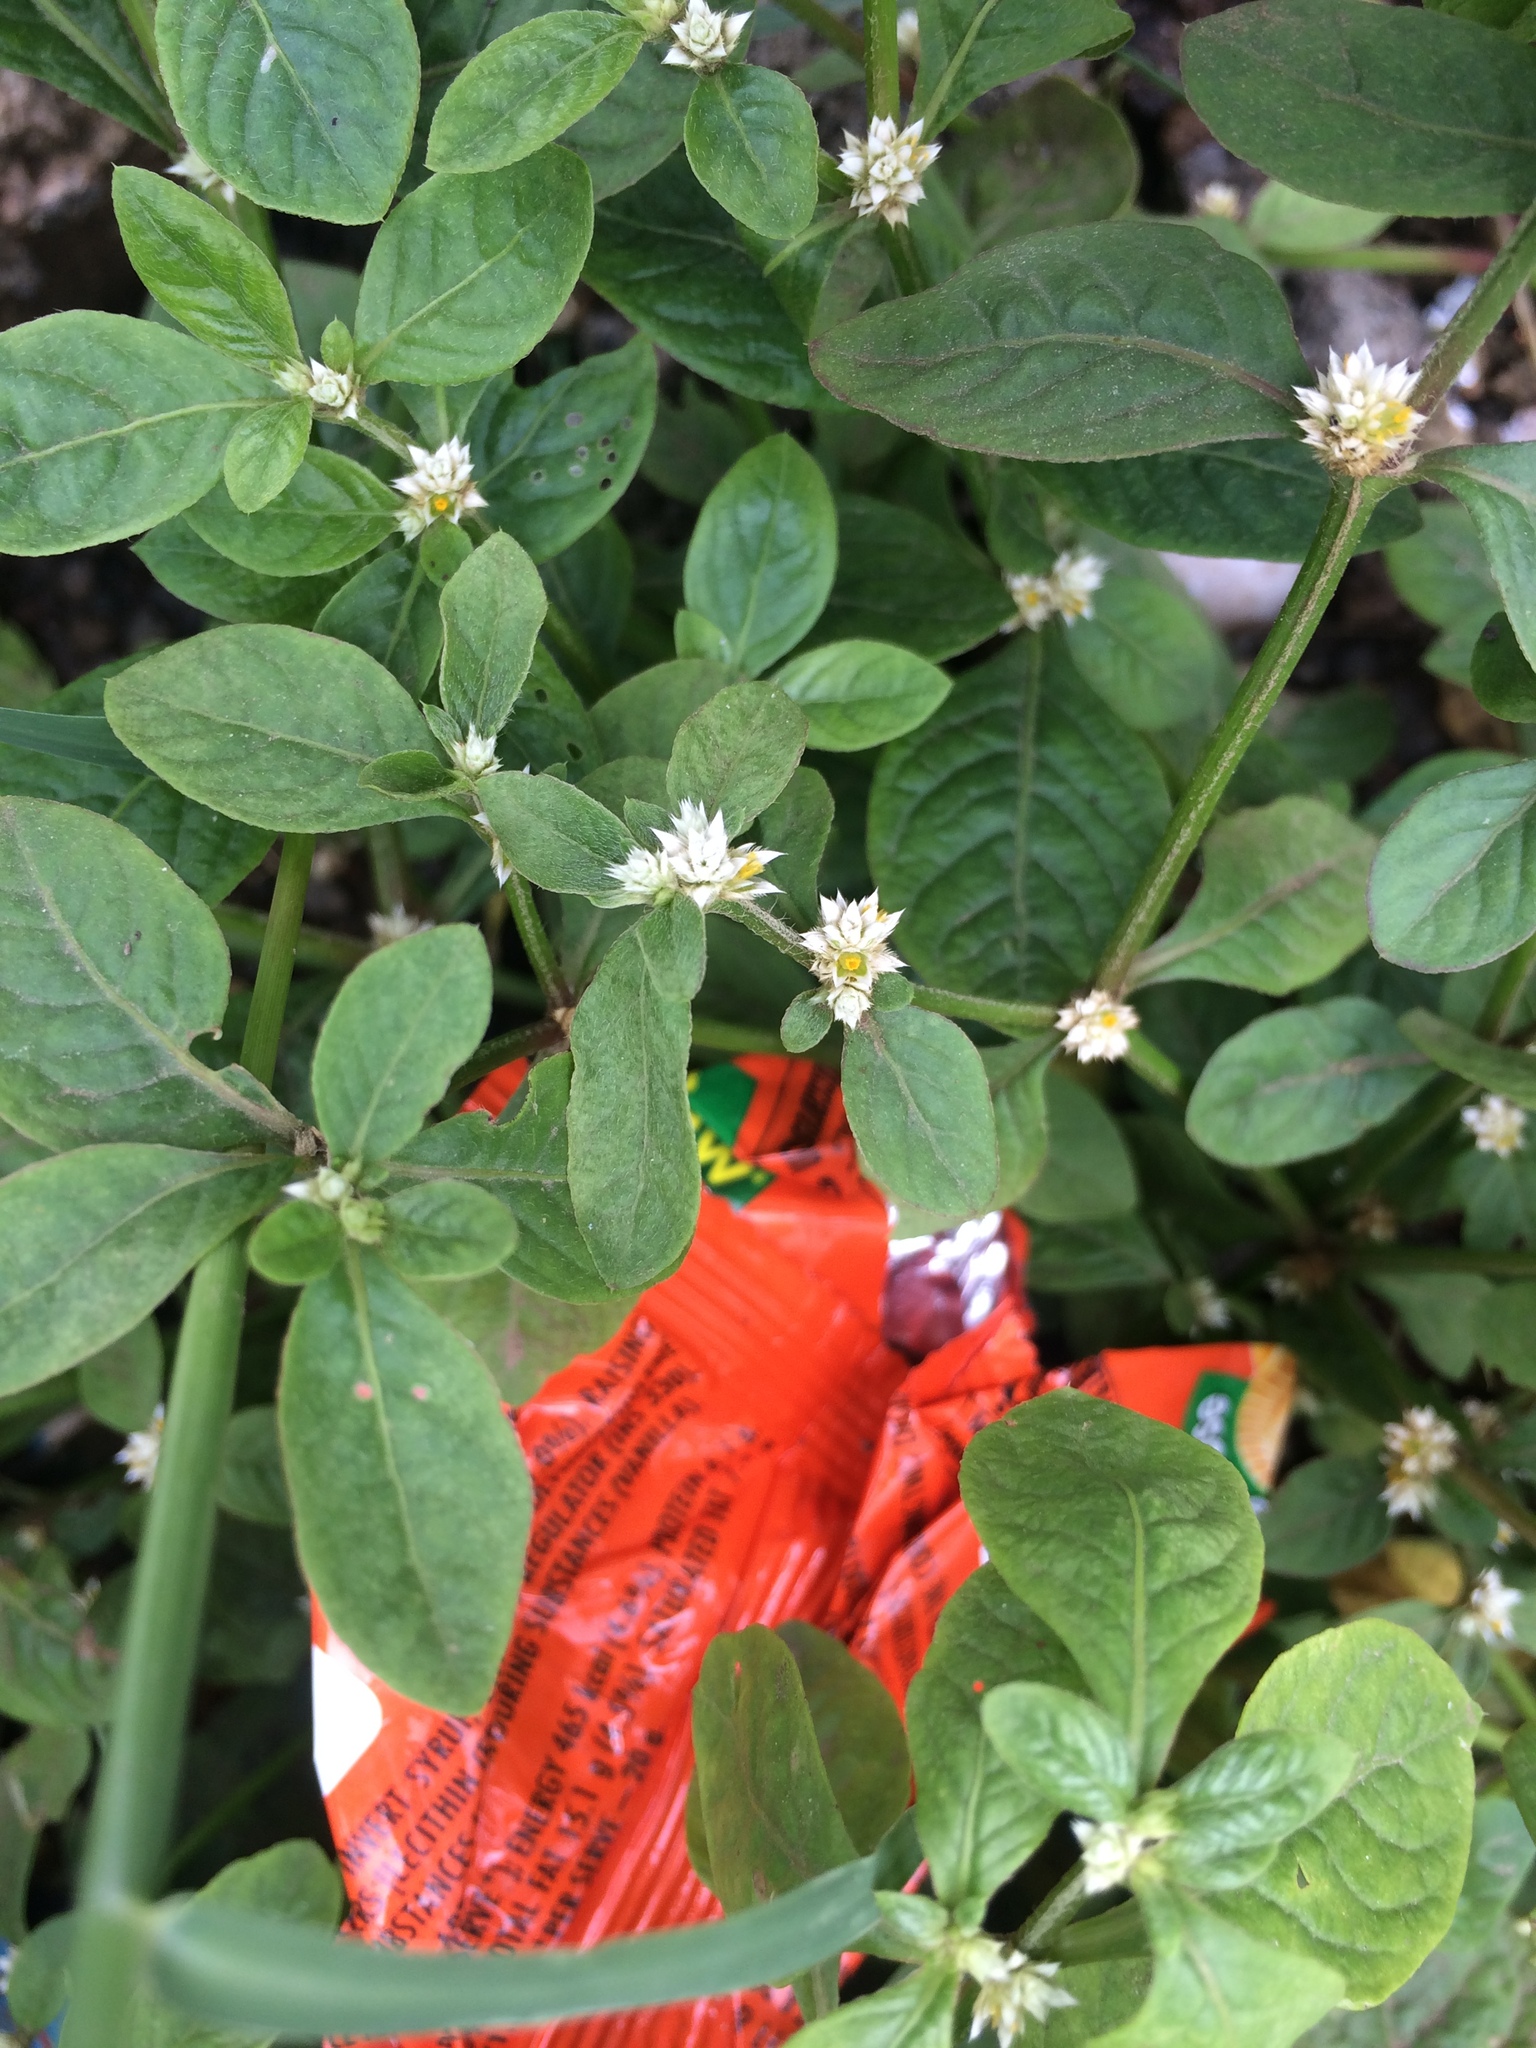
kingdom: Plantae
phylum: Tracheophyta
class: Magnoliopsida
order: Caryophyllales
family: Amaranthaceae
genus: Alternanthera
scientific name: Alternanthera ficoidea
